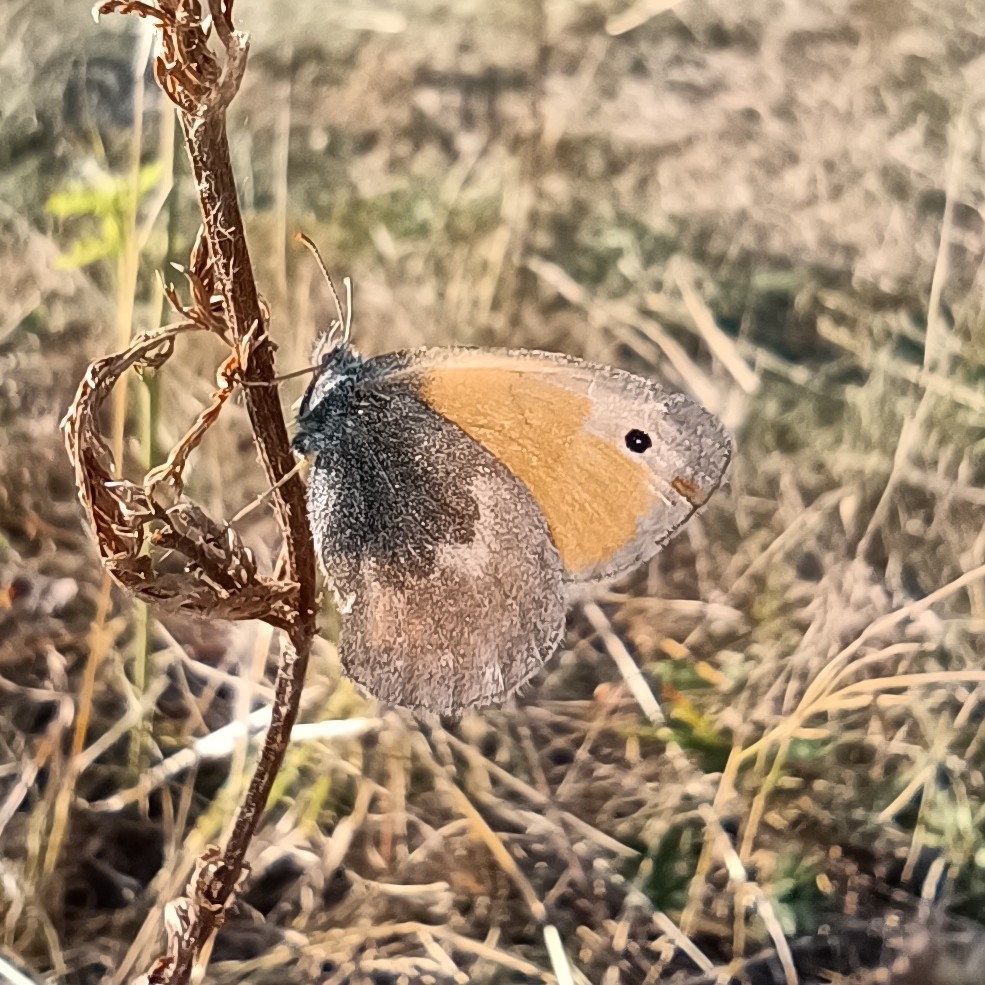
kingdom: Animalia
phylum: Arthropoda
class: Insecta
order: Lepidoptera
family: Nymphalidae
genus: Coenonympha
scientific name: Coenonympha pamphilus
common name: Small heath
